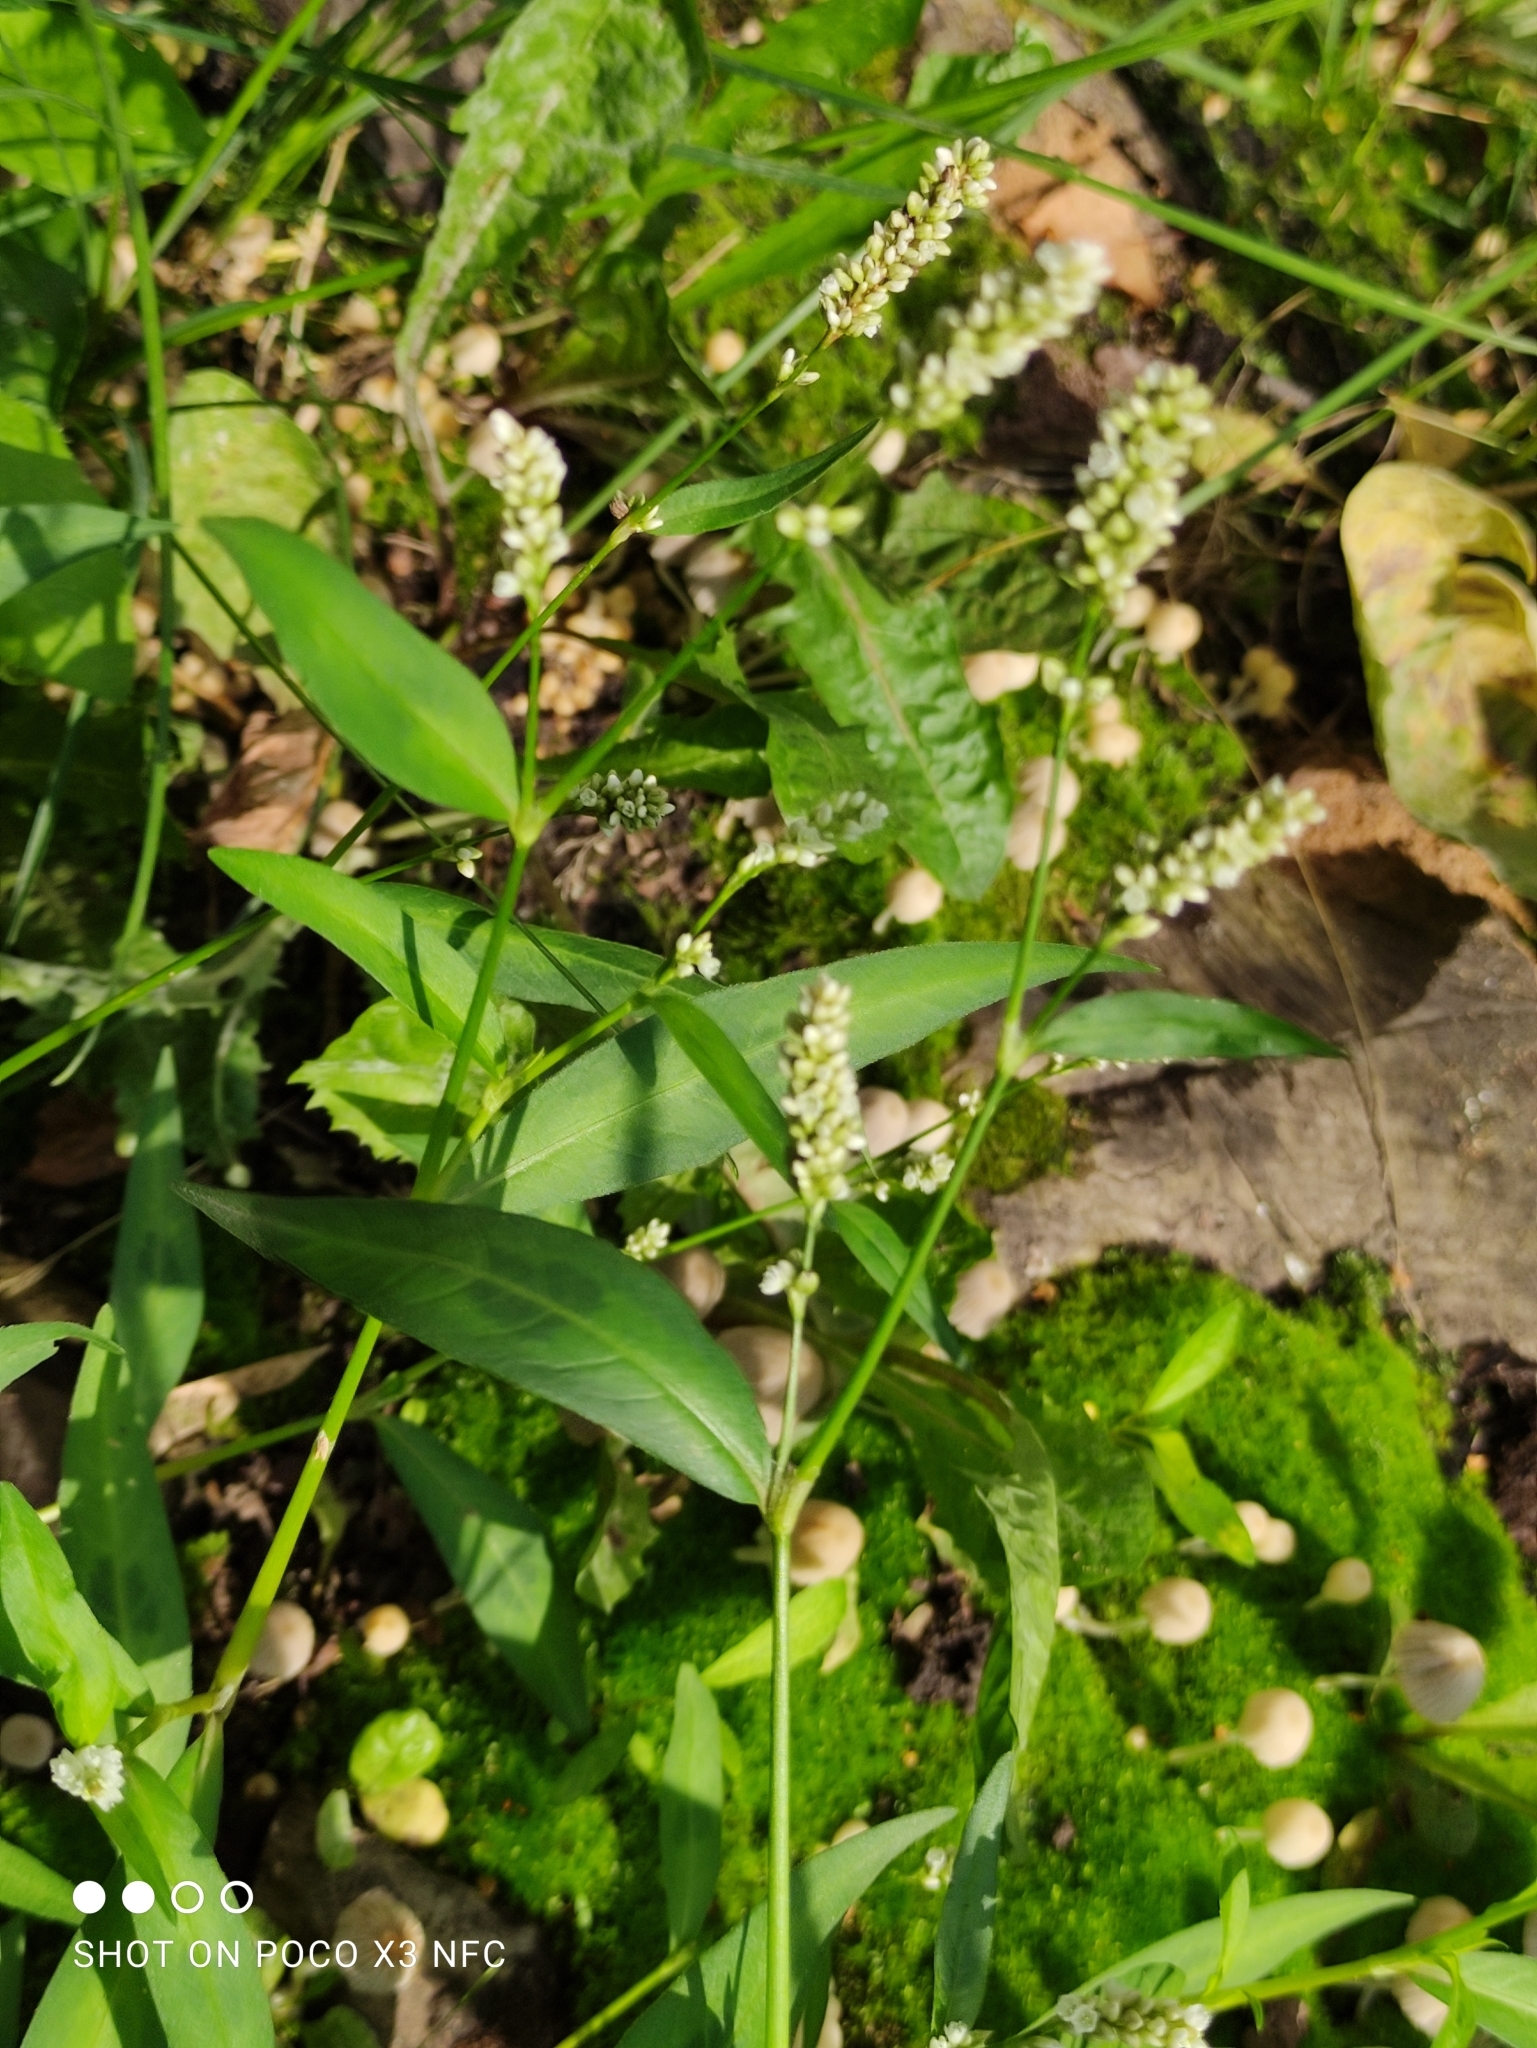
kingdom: Plantae
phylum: Tracheophyta
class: Magnoliopsida
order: Caryophyllales
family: Polygonaceae
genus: Persicaria
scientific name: Persicaria maculosa
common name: Redshank
